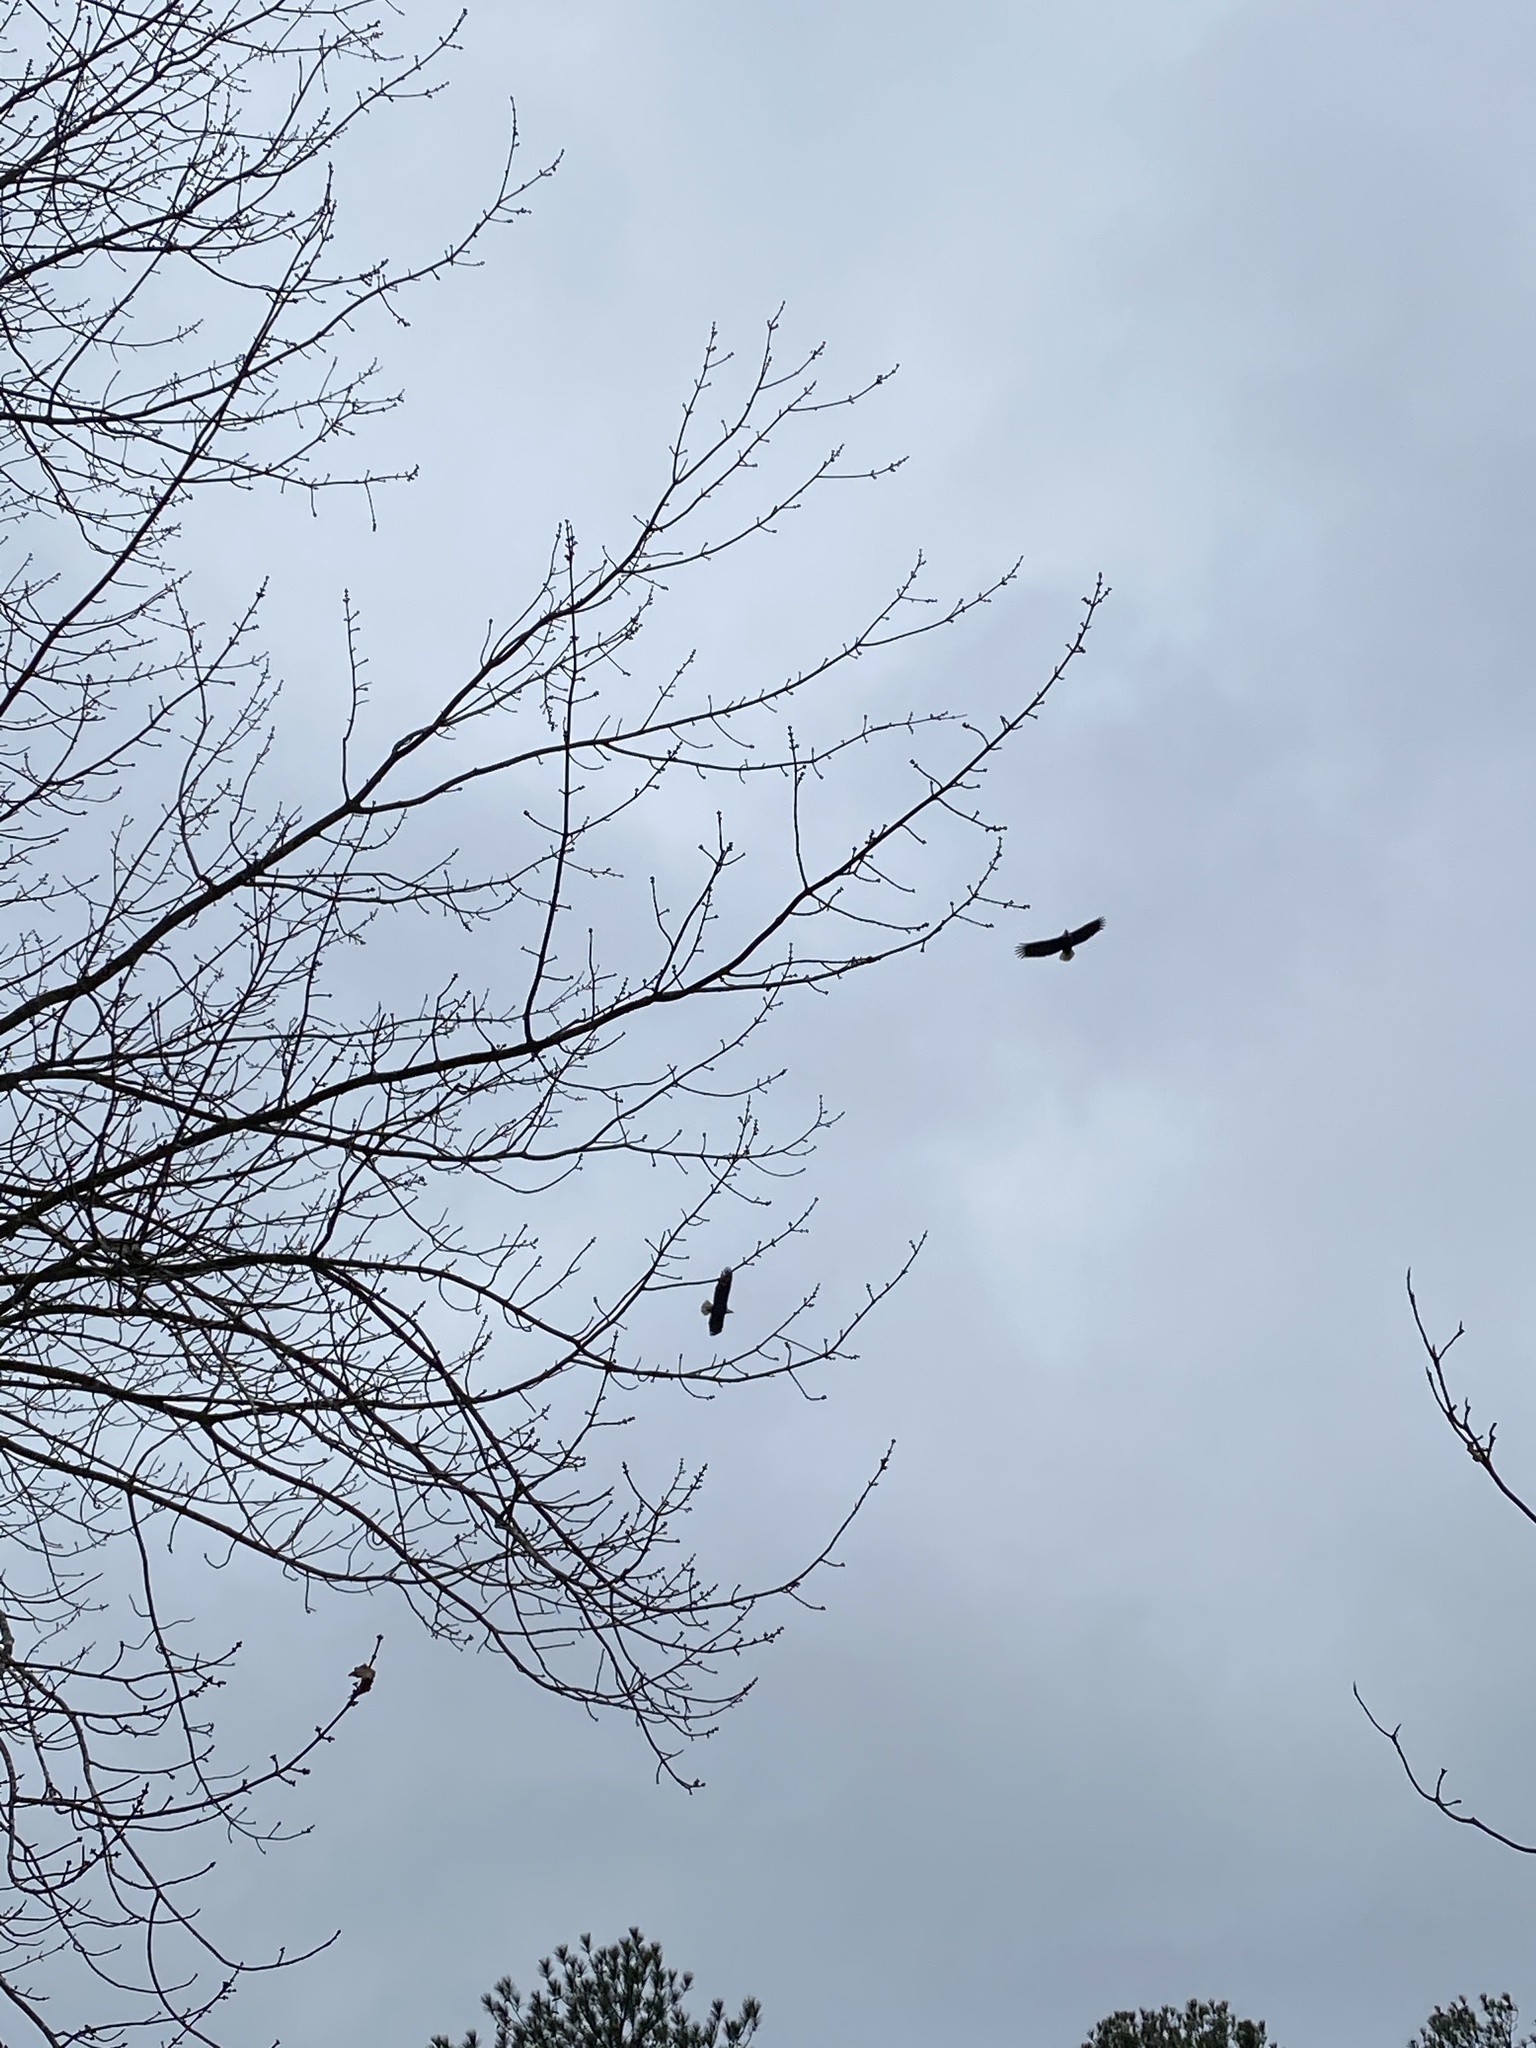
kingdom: Animalia
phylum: Chordata
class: Aves
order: Accipitriformes
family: Accipitridae
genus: Haliaeetus
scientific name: Haliaeetus leucocephalus
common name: Bald eagle
